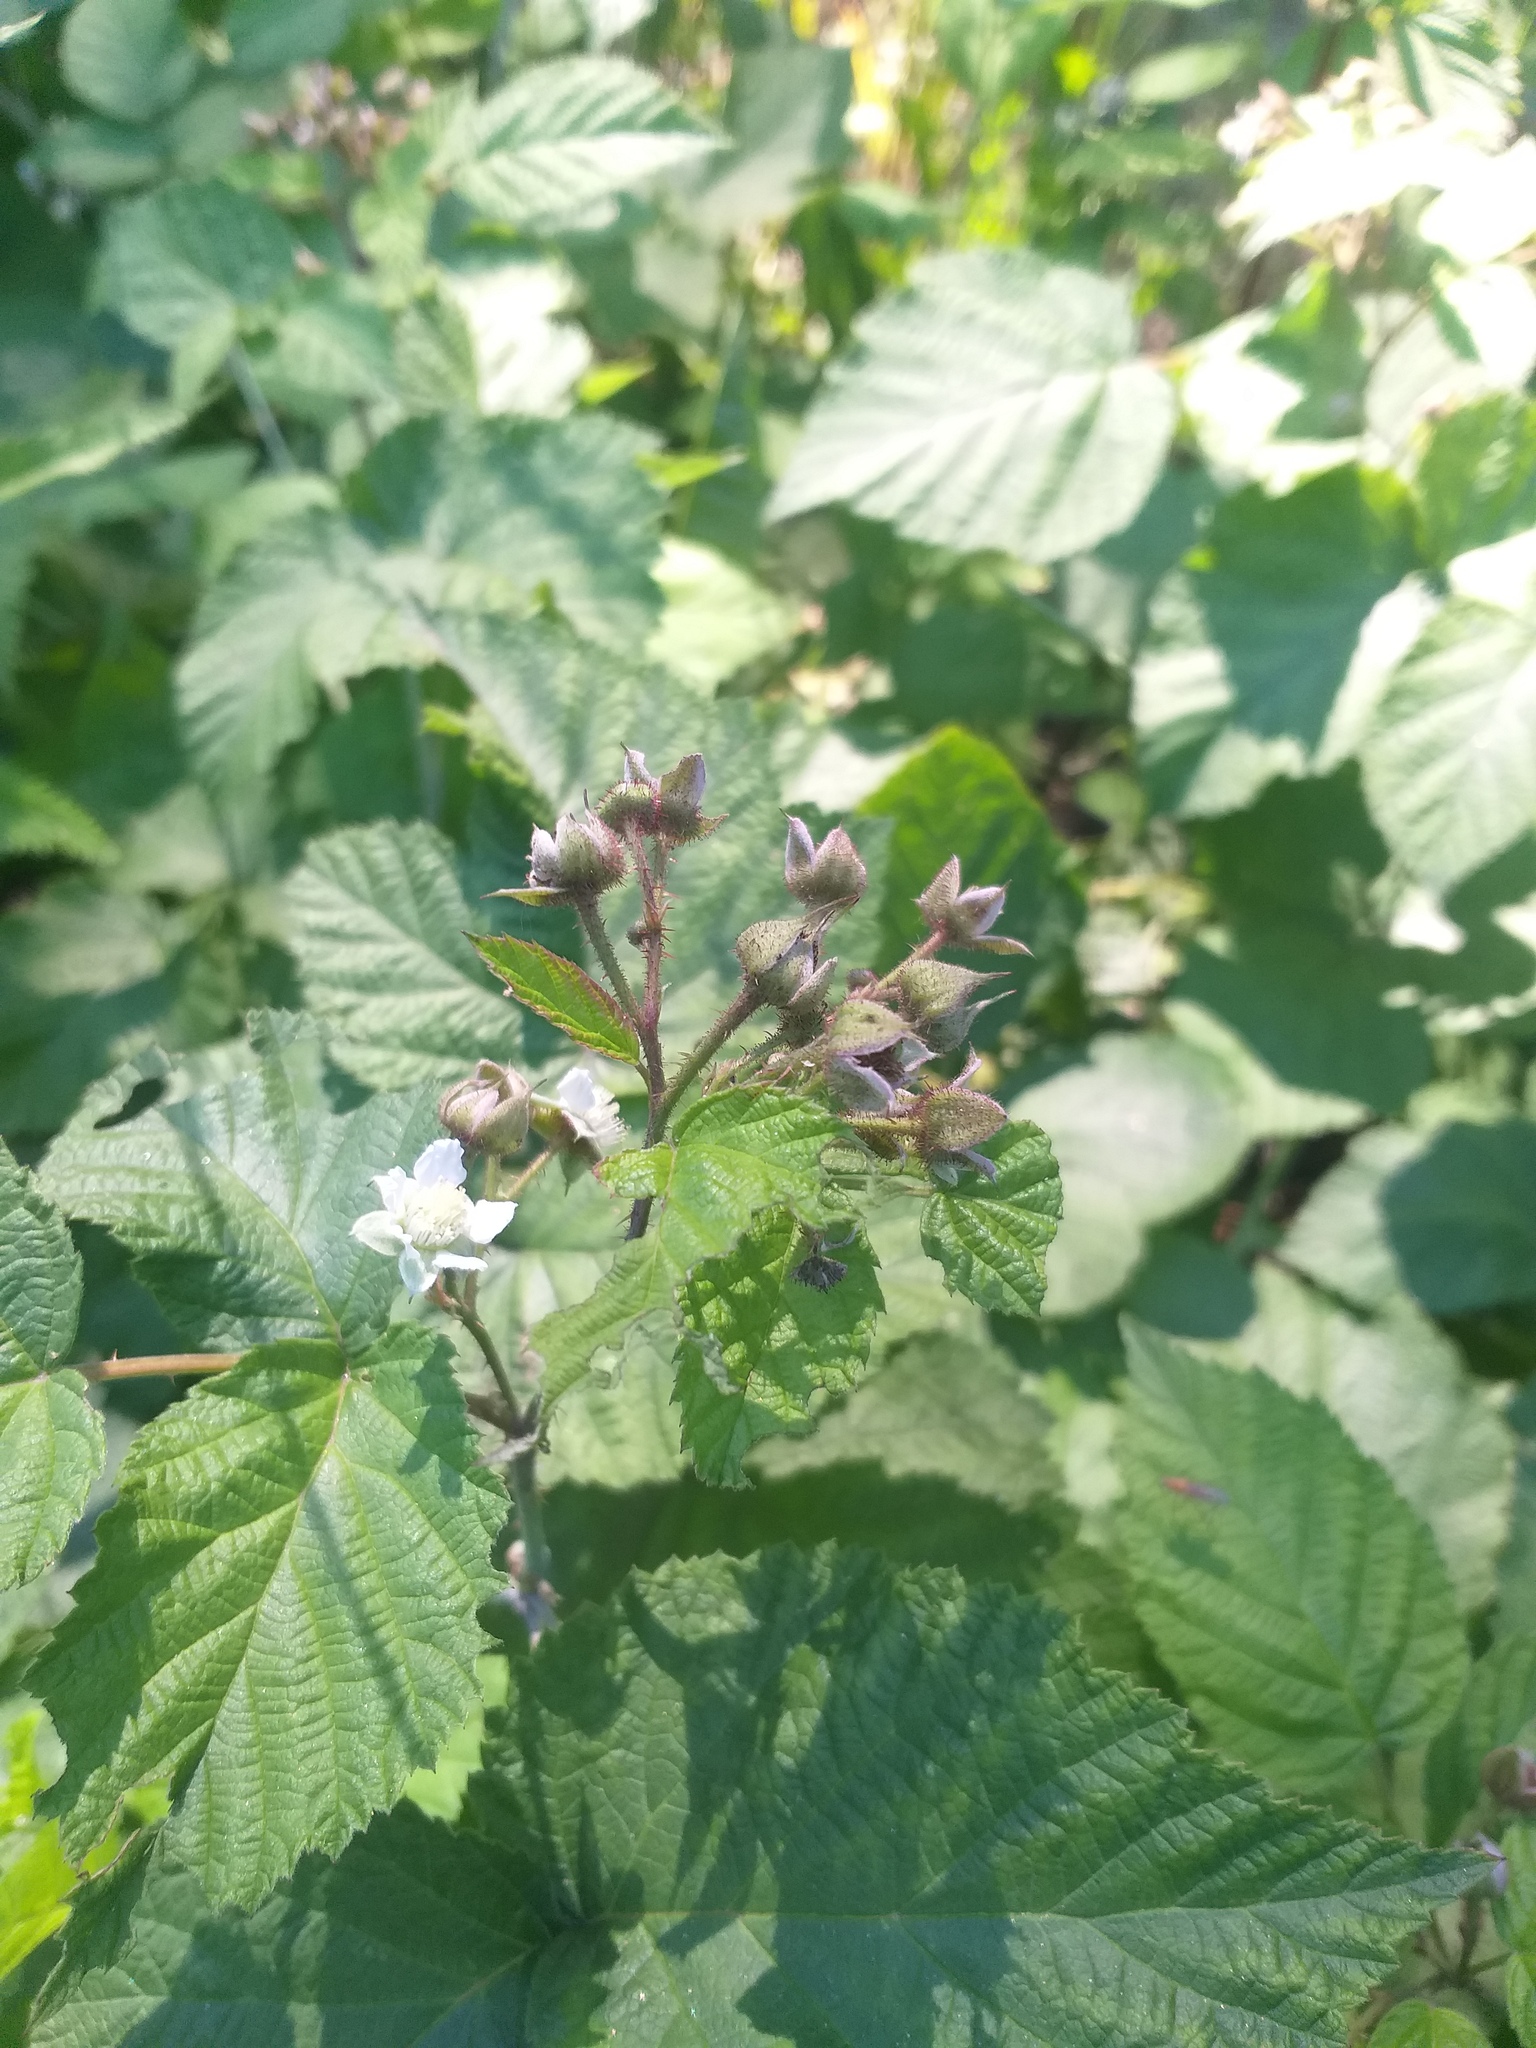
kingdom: Plantae
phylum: Tracheophyta
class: Magnoliopsida
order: Rosales
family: Rosaceae
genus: Rubus
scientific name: Rubus idaeoides
